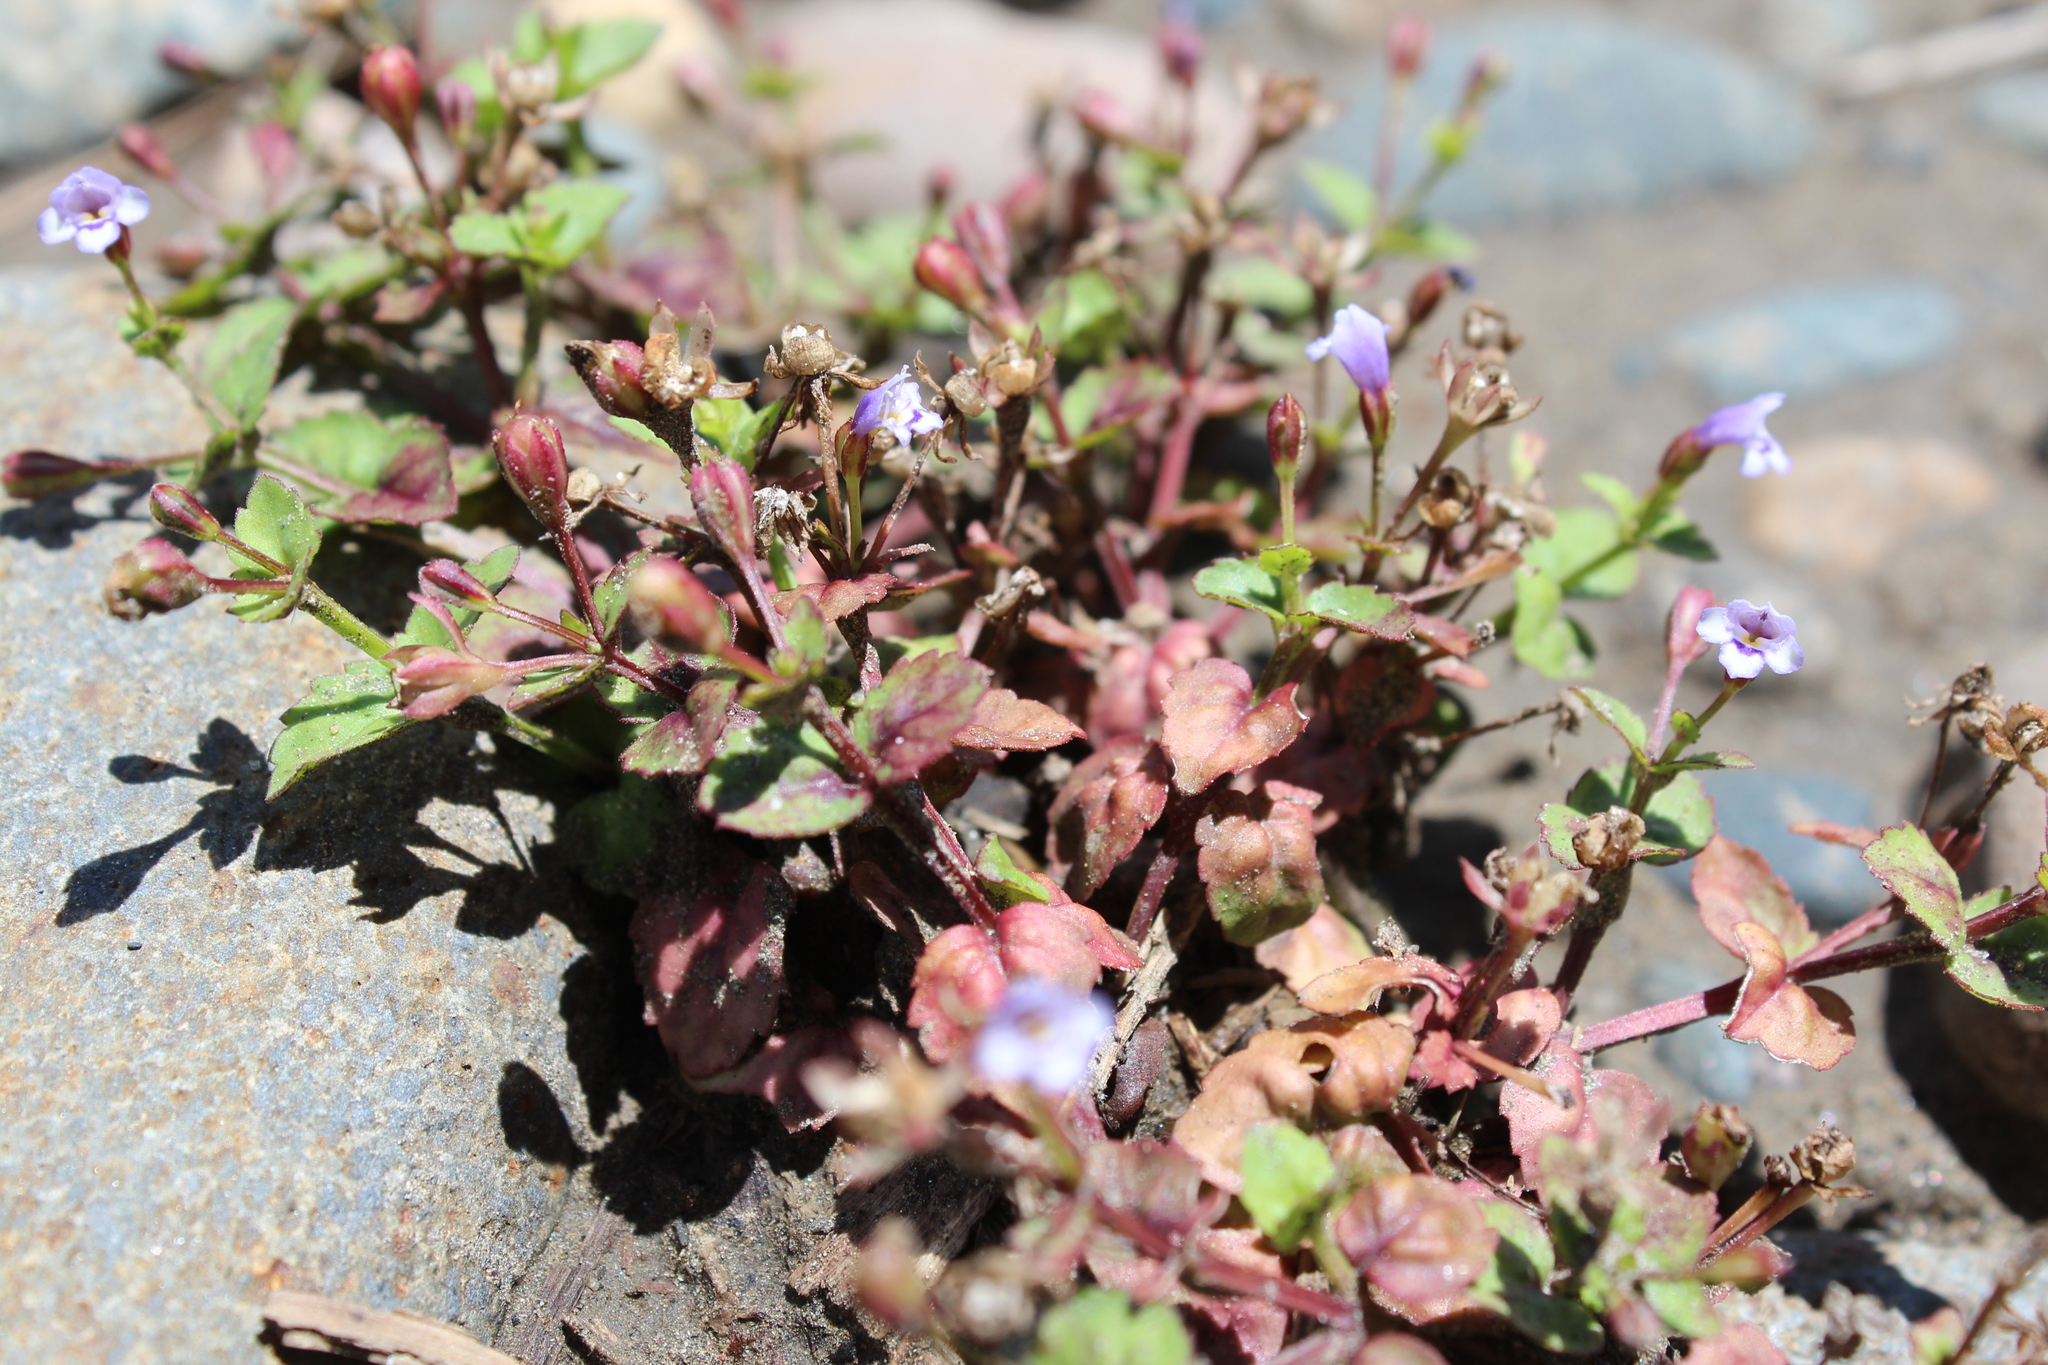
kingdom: Plantae
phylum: Tracheophyta
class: Magnoliopsida
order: Lamiales
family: Linderniaceae
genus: Torenia
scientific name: Torenia crustacea
